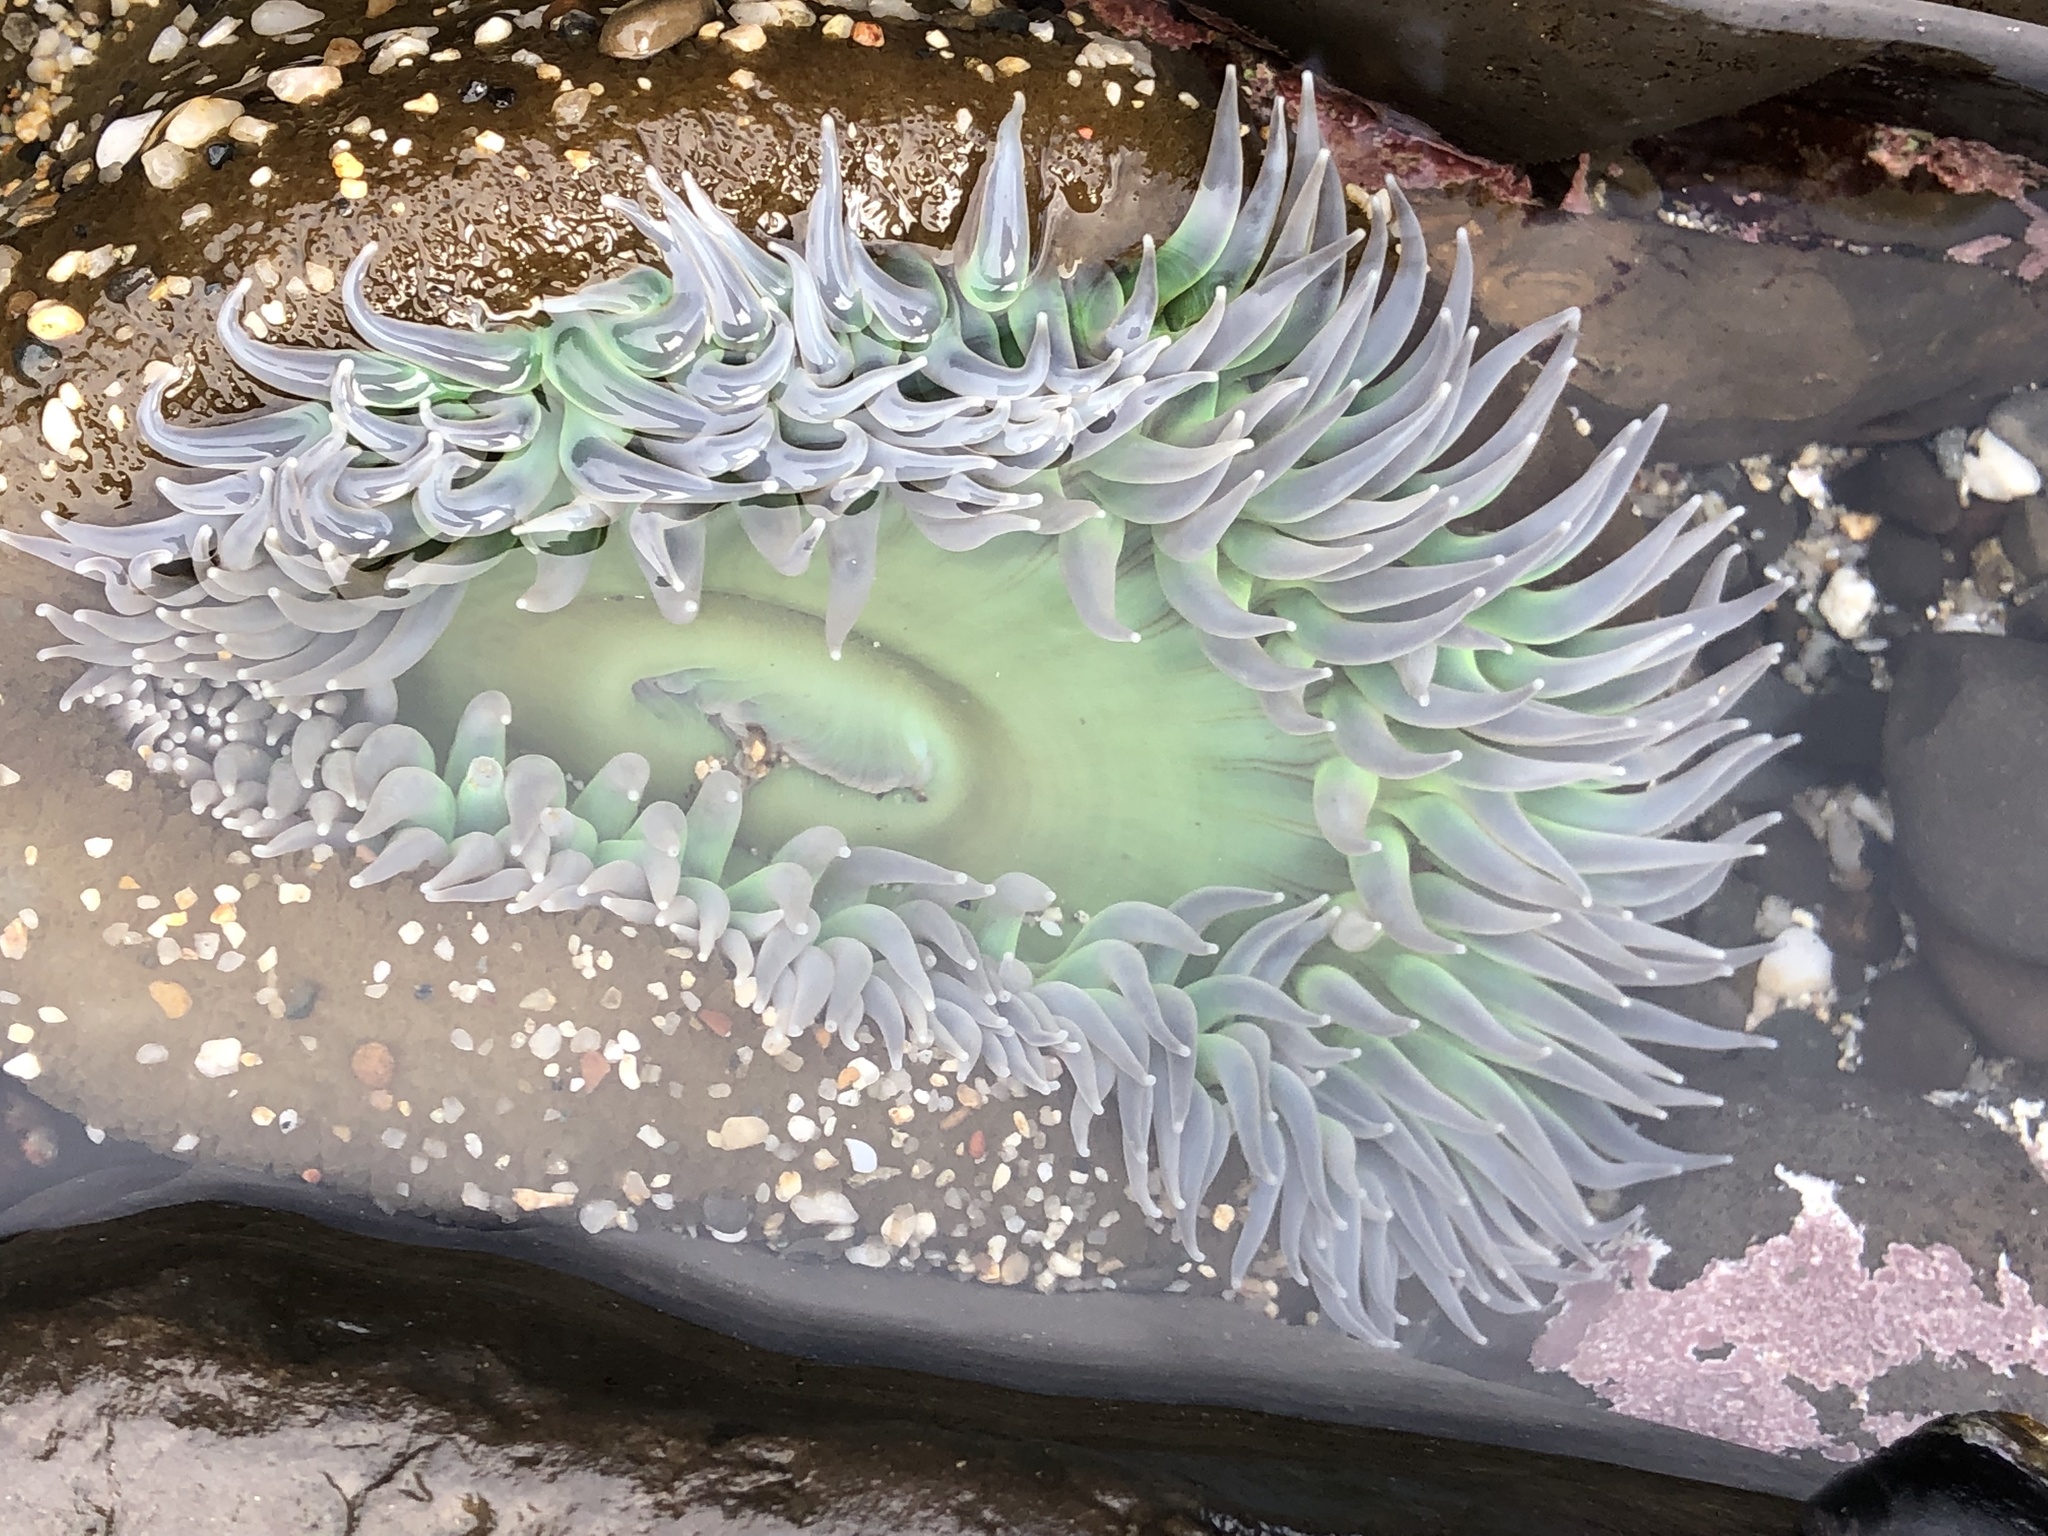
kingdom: Animalia
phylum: Cnidaria
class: Anthozoa
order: Actiniaria
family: Actiniidae
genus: Anthopleura
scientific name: Anthopleura xanthogrammica
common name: Giant green anemone
